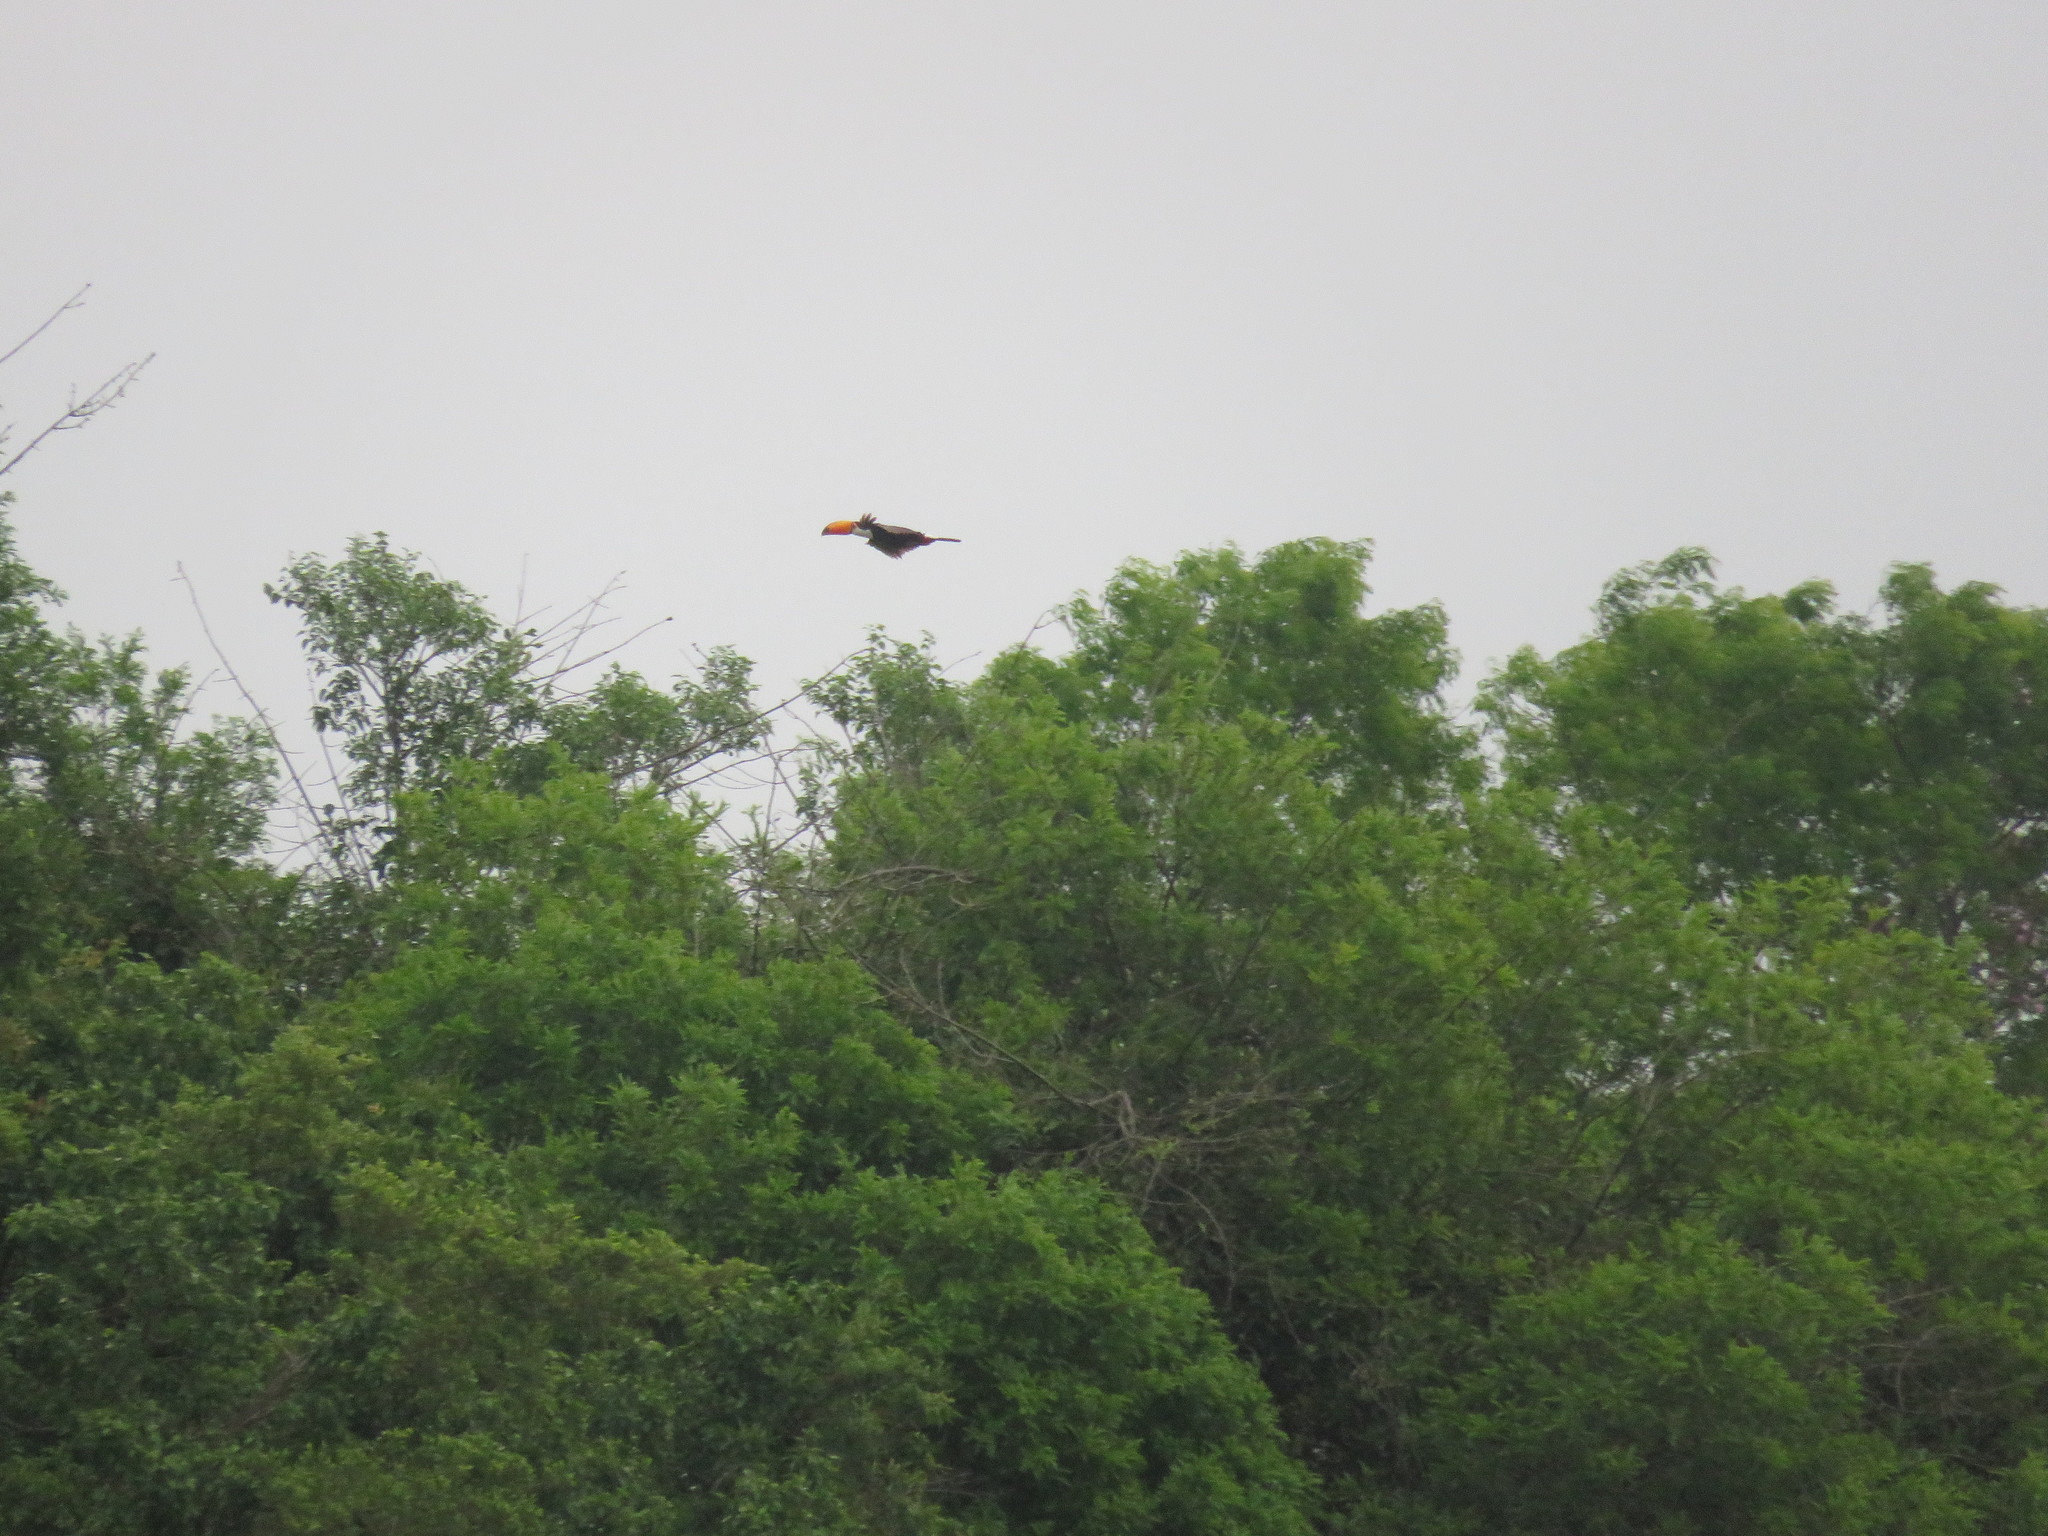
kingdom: Animalia
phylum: Chordata
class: Aves
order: Piciformes
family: Ramphastidae
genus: Ramphastos
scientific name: Ramphastos toco
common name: Toco toucan
